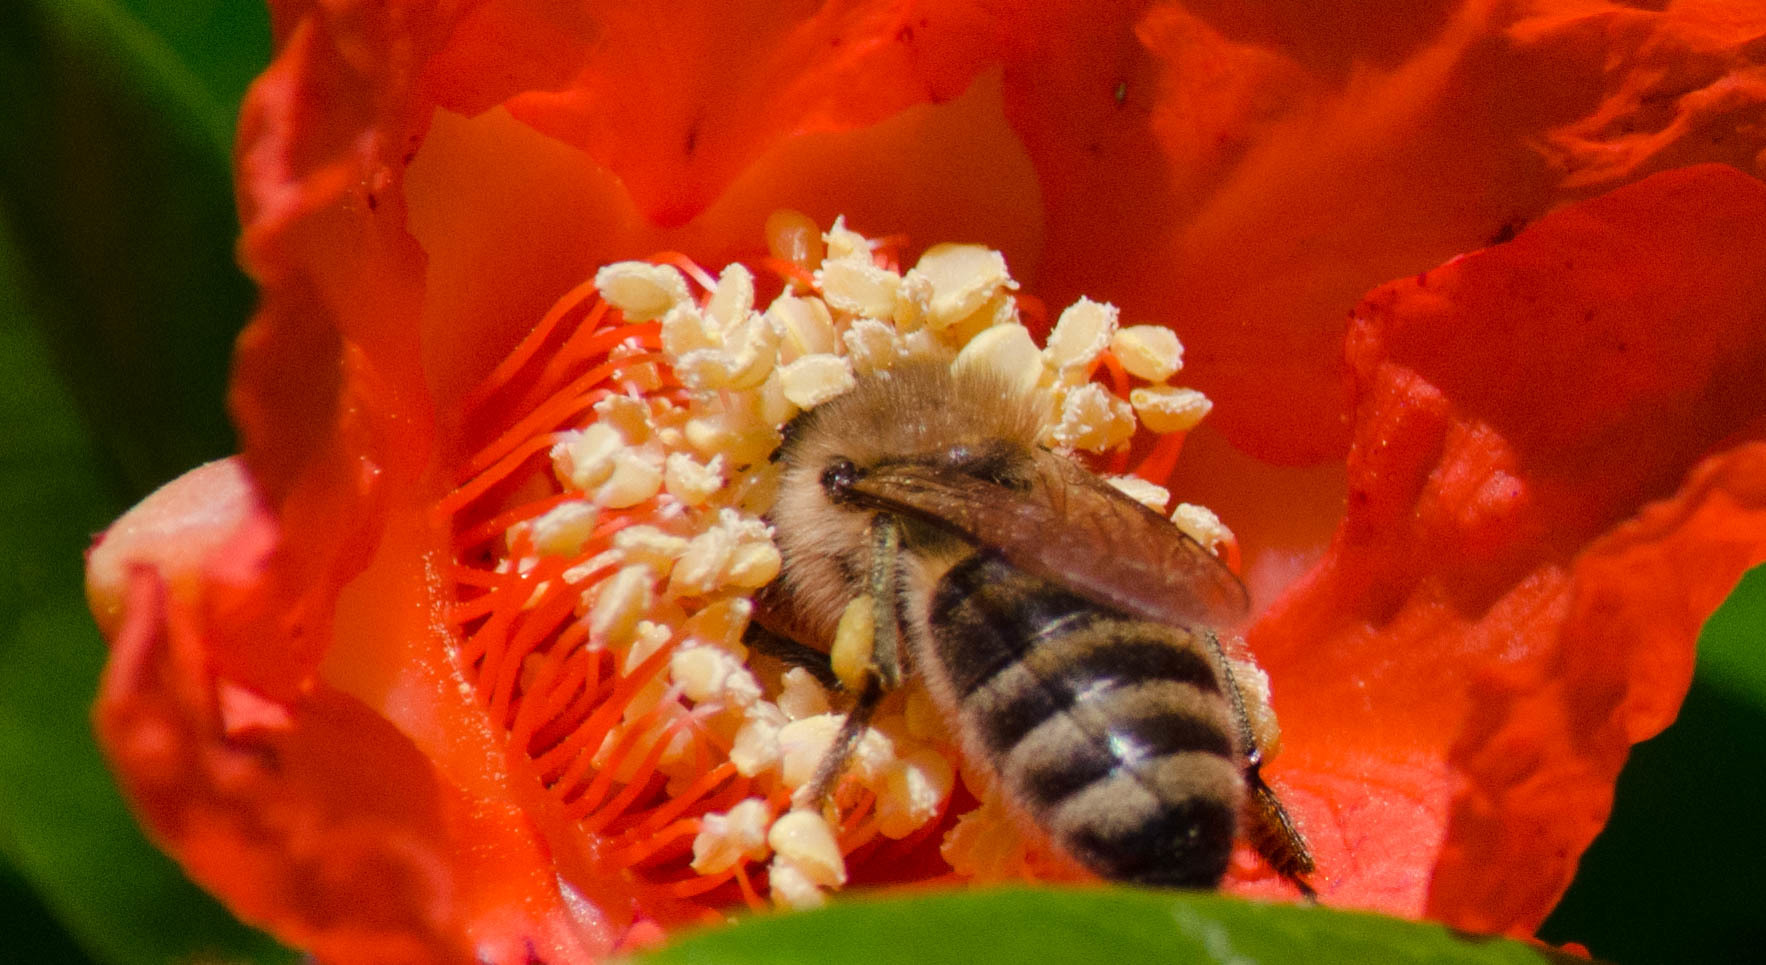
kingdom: Animalia
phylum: Arthropoda
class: Insecta
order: Hymenoptera
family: Apidae
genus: Apis
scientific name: Apis mellifera
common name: Honey bee
